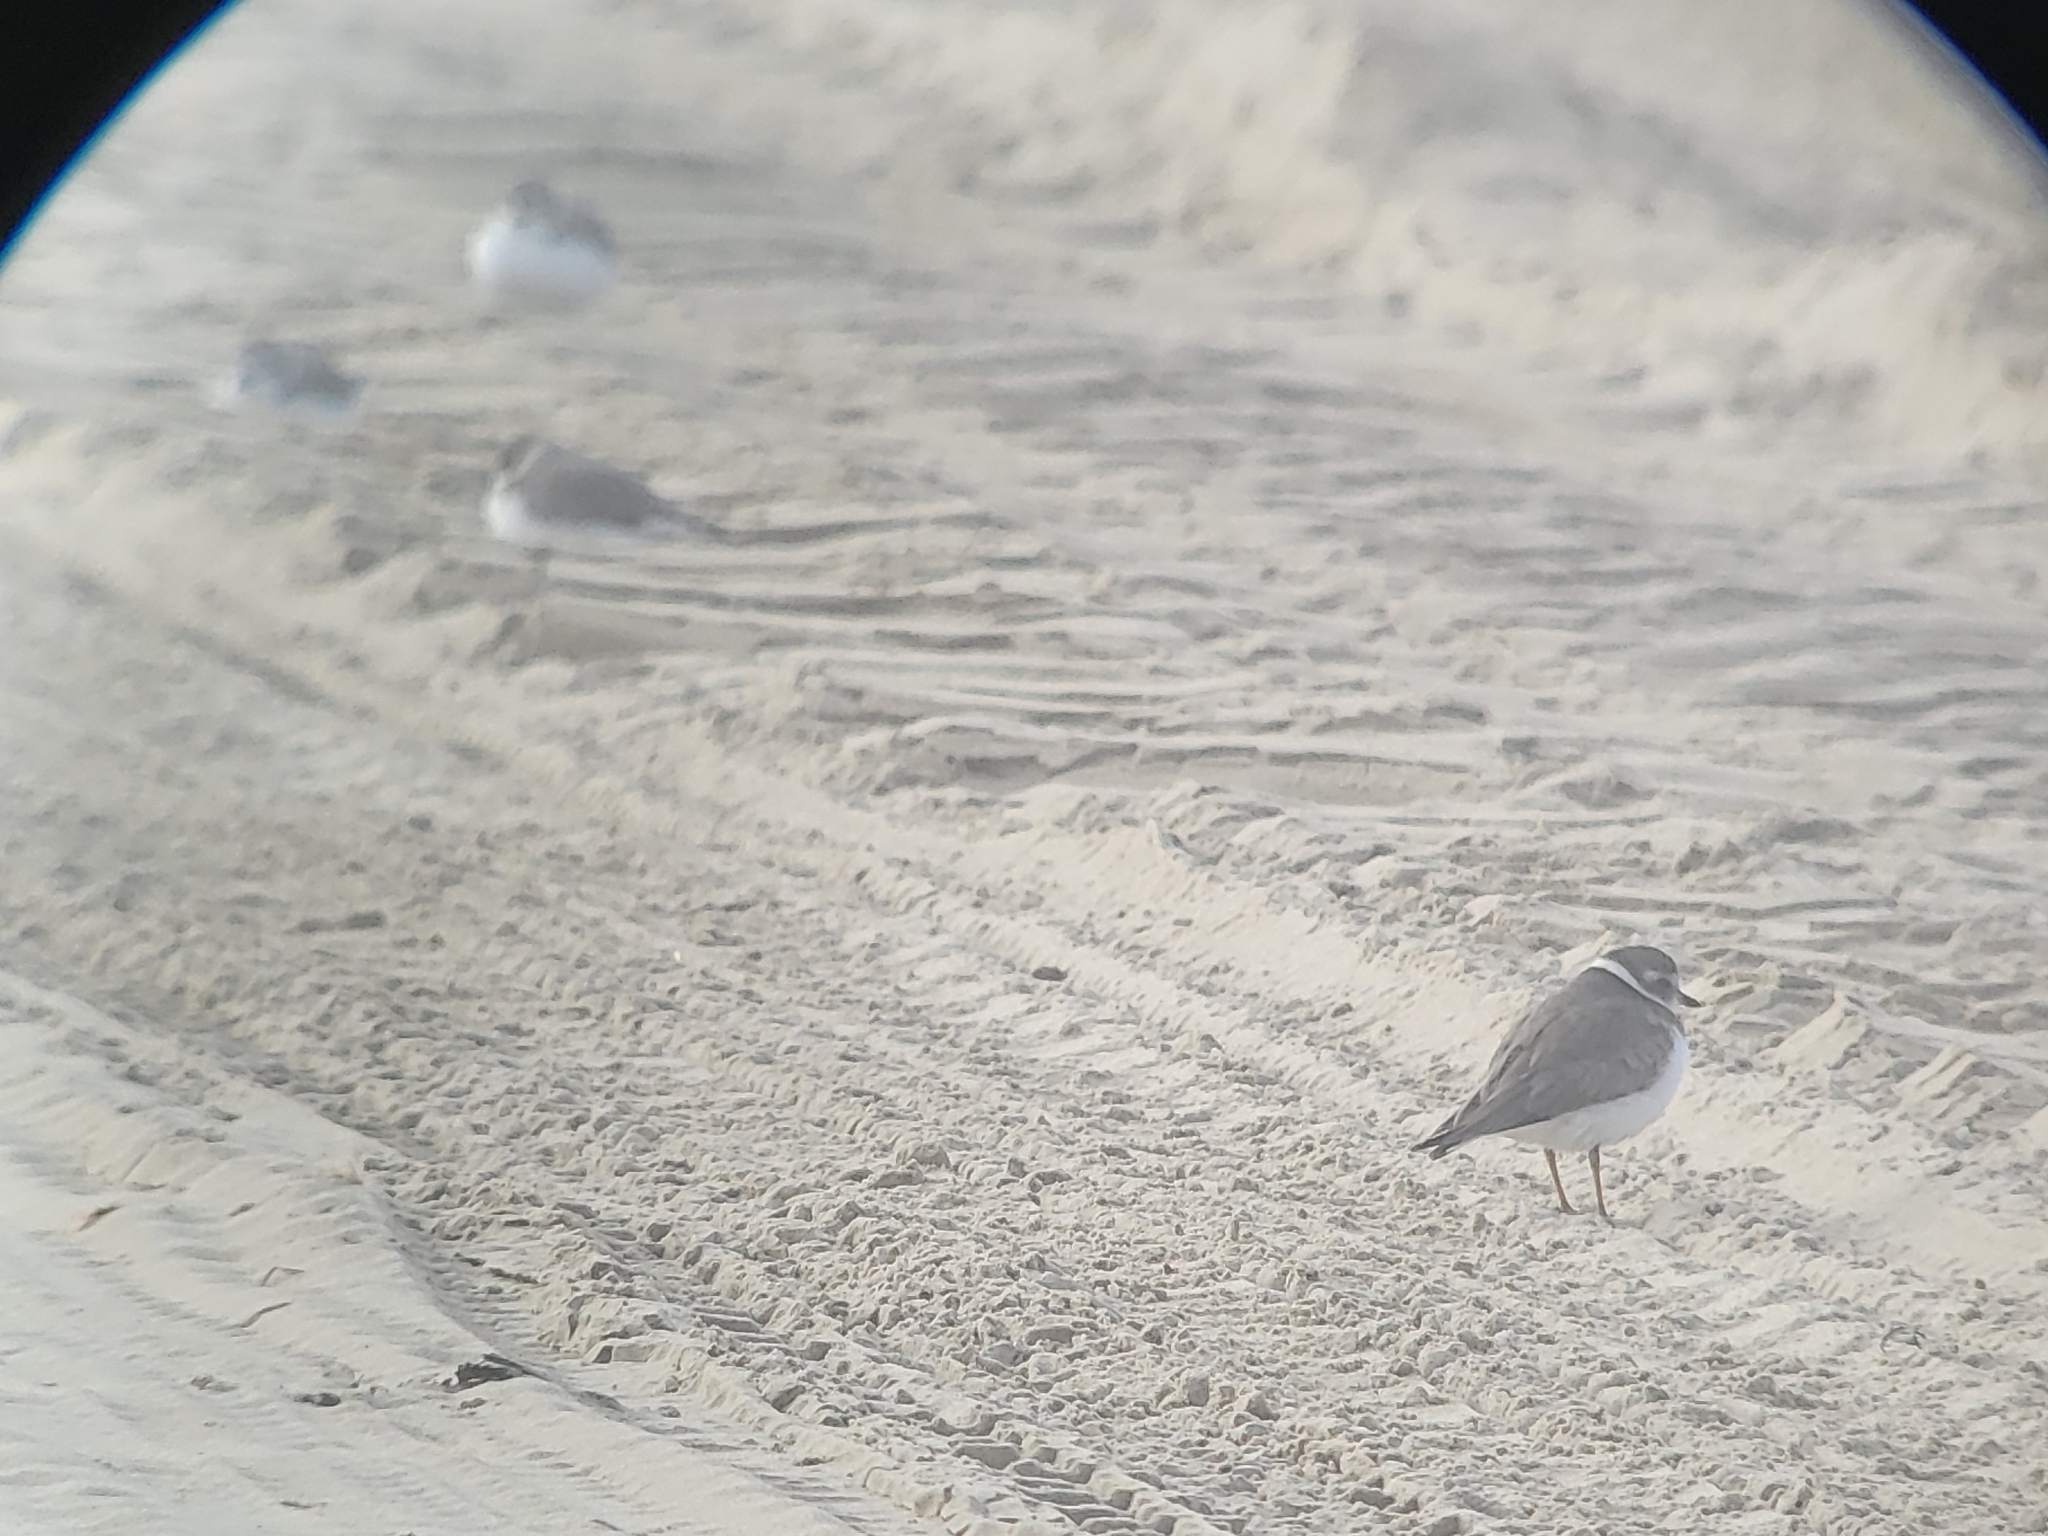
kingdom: Animalia
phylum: Chordata
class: Aves
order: Charadriiformes
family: Charadriidae
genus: Charadrius
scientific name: Charadrius semipalmatus
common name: Semipalmated plover
